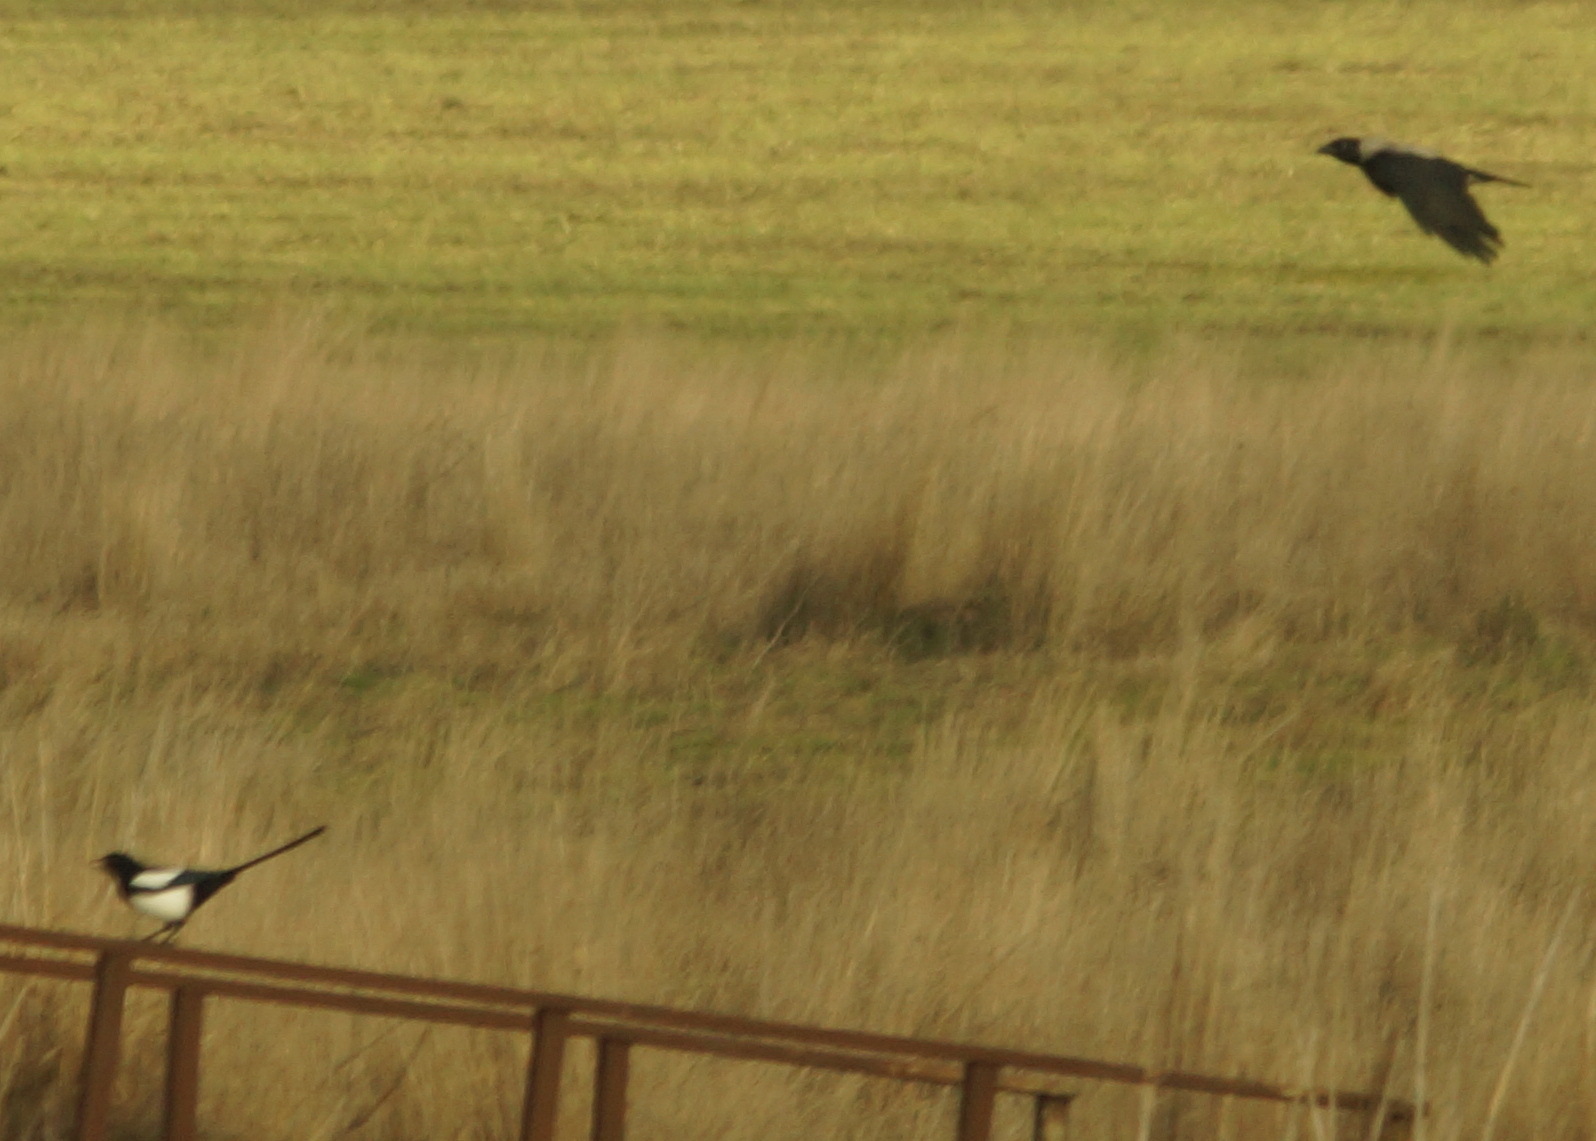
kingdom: Animalia
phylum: Chordata
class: Aves
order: Passeriformes
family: Corvidae
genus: Corvus
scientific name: Corvus cornix
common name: Hooded crow
